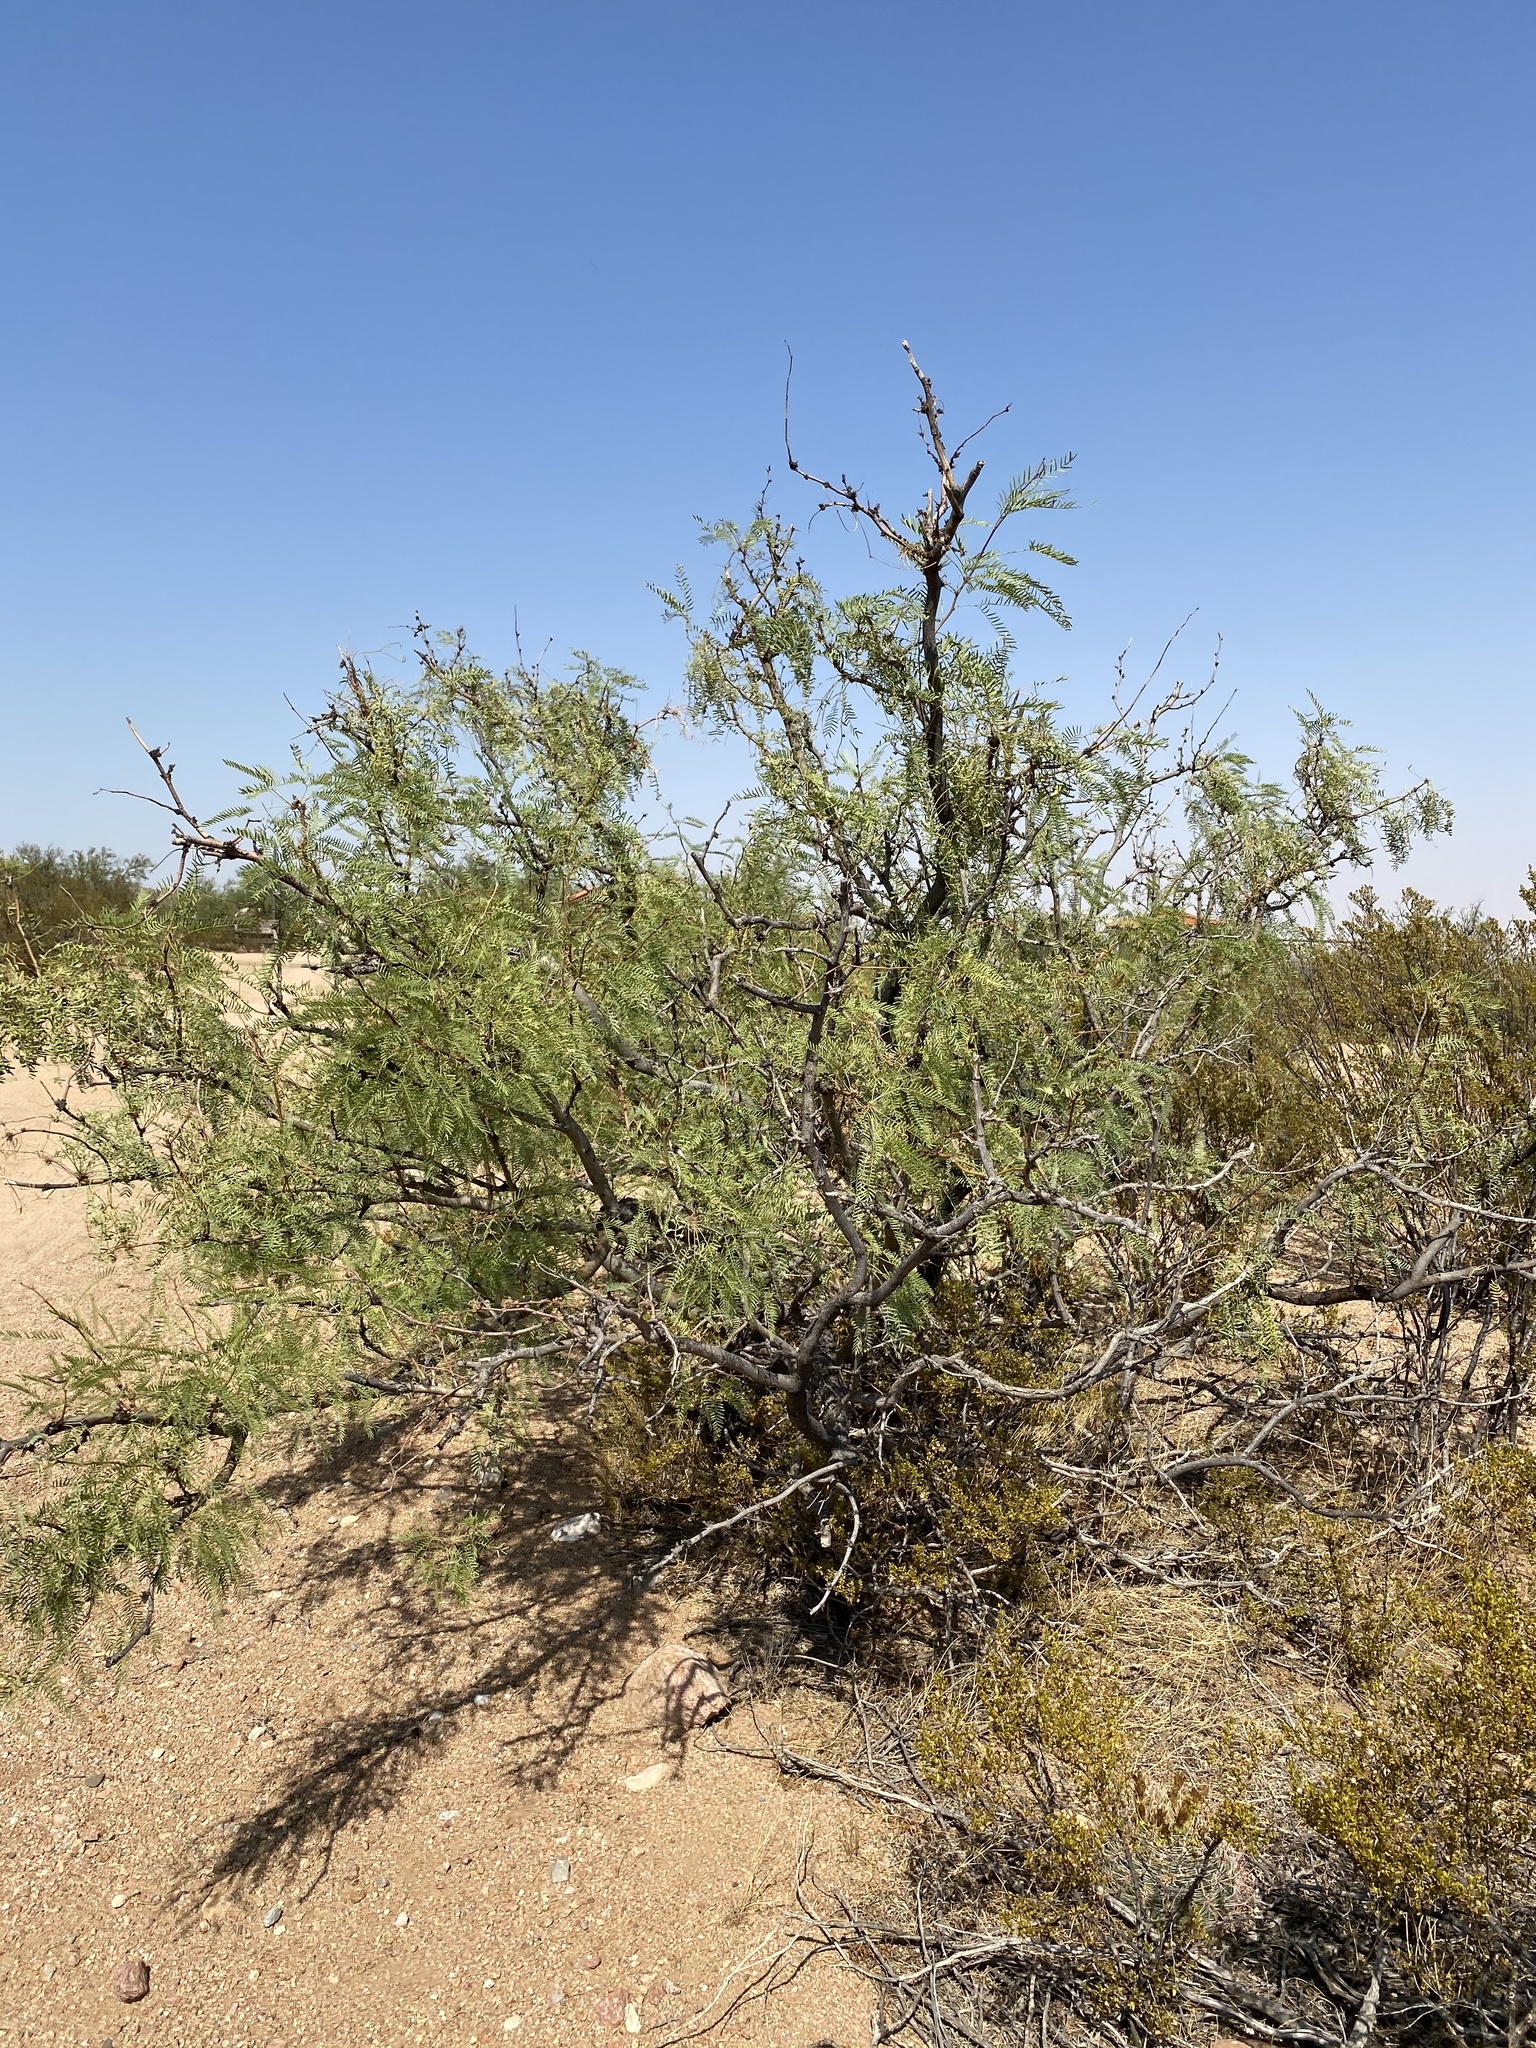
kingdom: Plantae
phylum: Tracheophyta
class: Magnoliopsida
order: Fabales
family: Fabaceae
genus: Prosopis
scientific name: Prosopis glandulosa
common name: Honey mesquite
